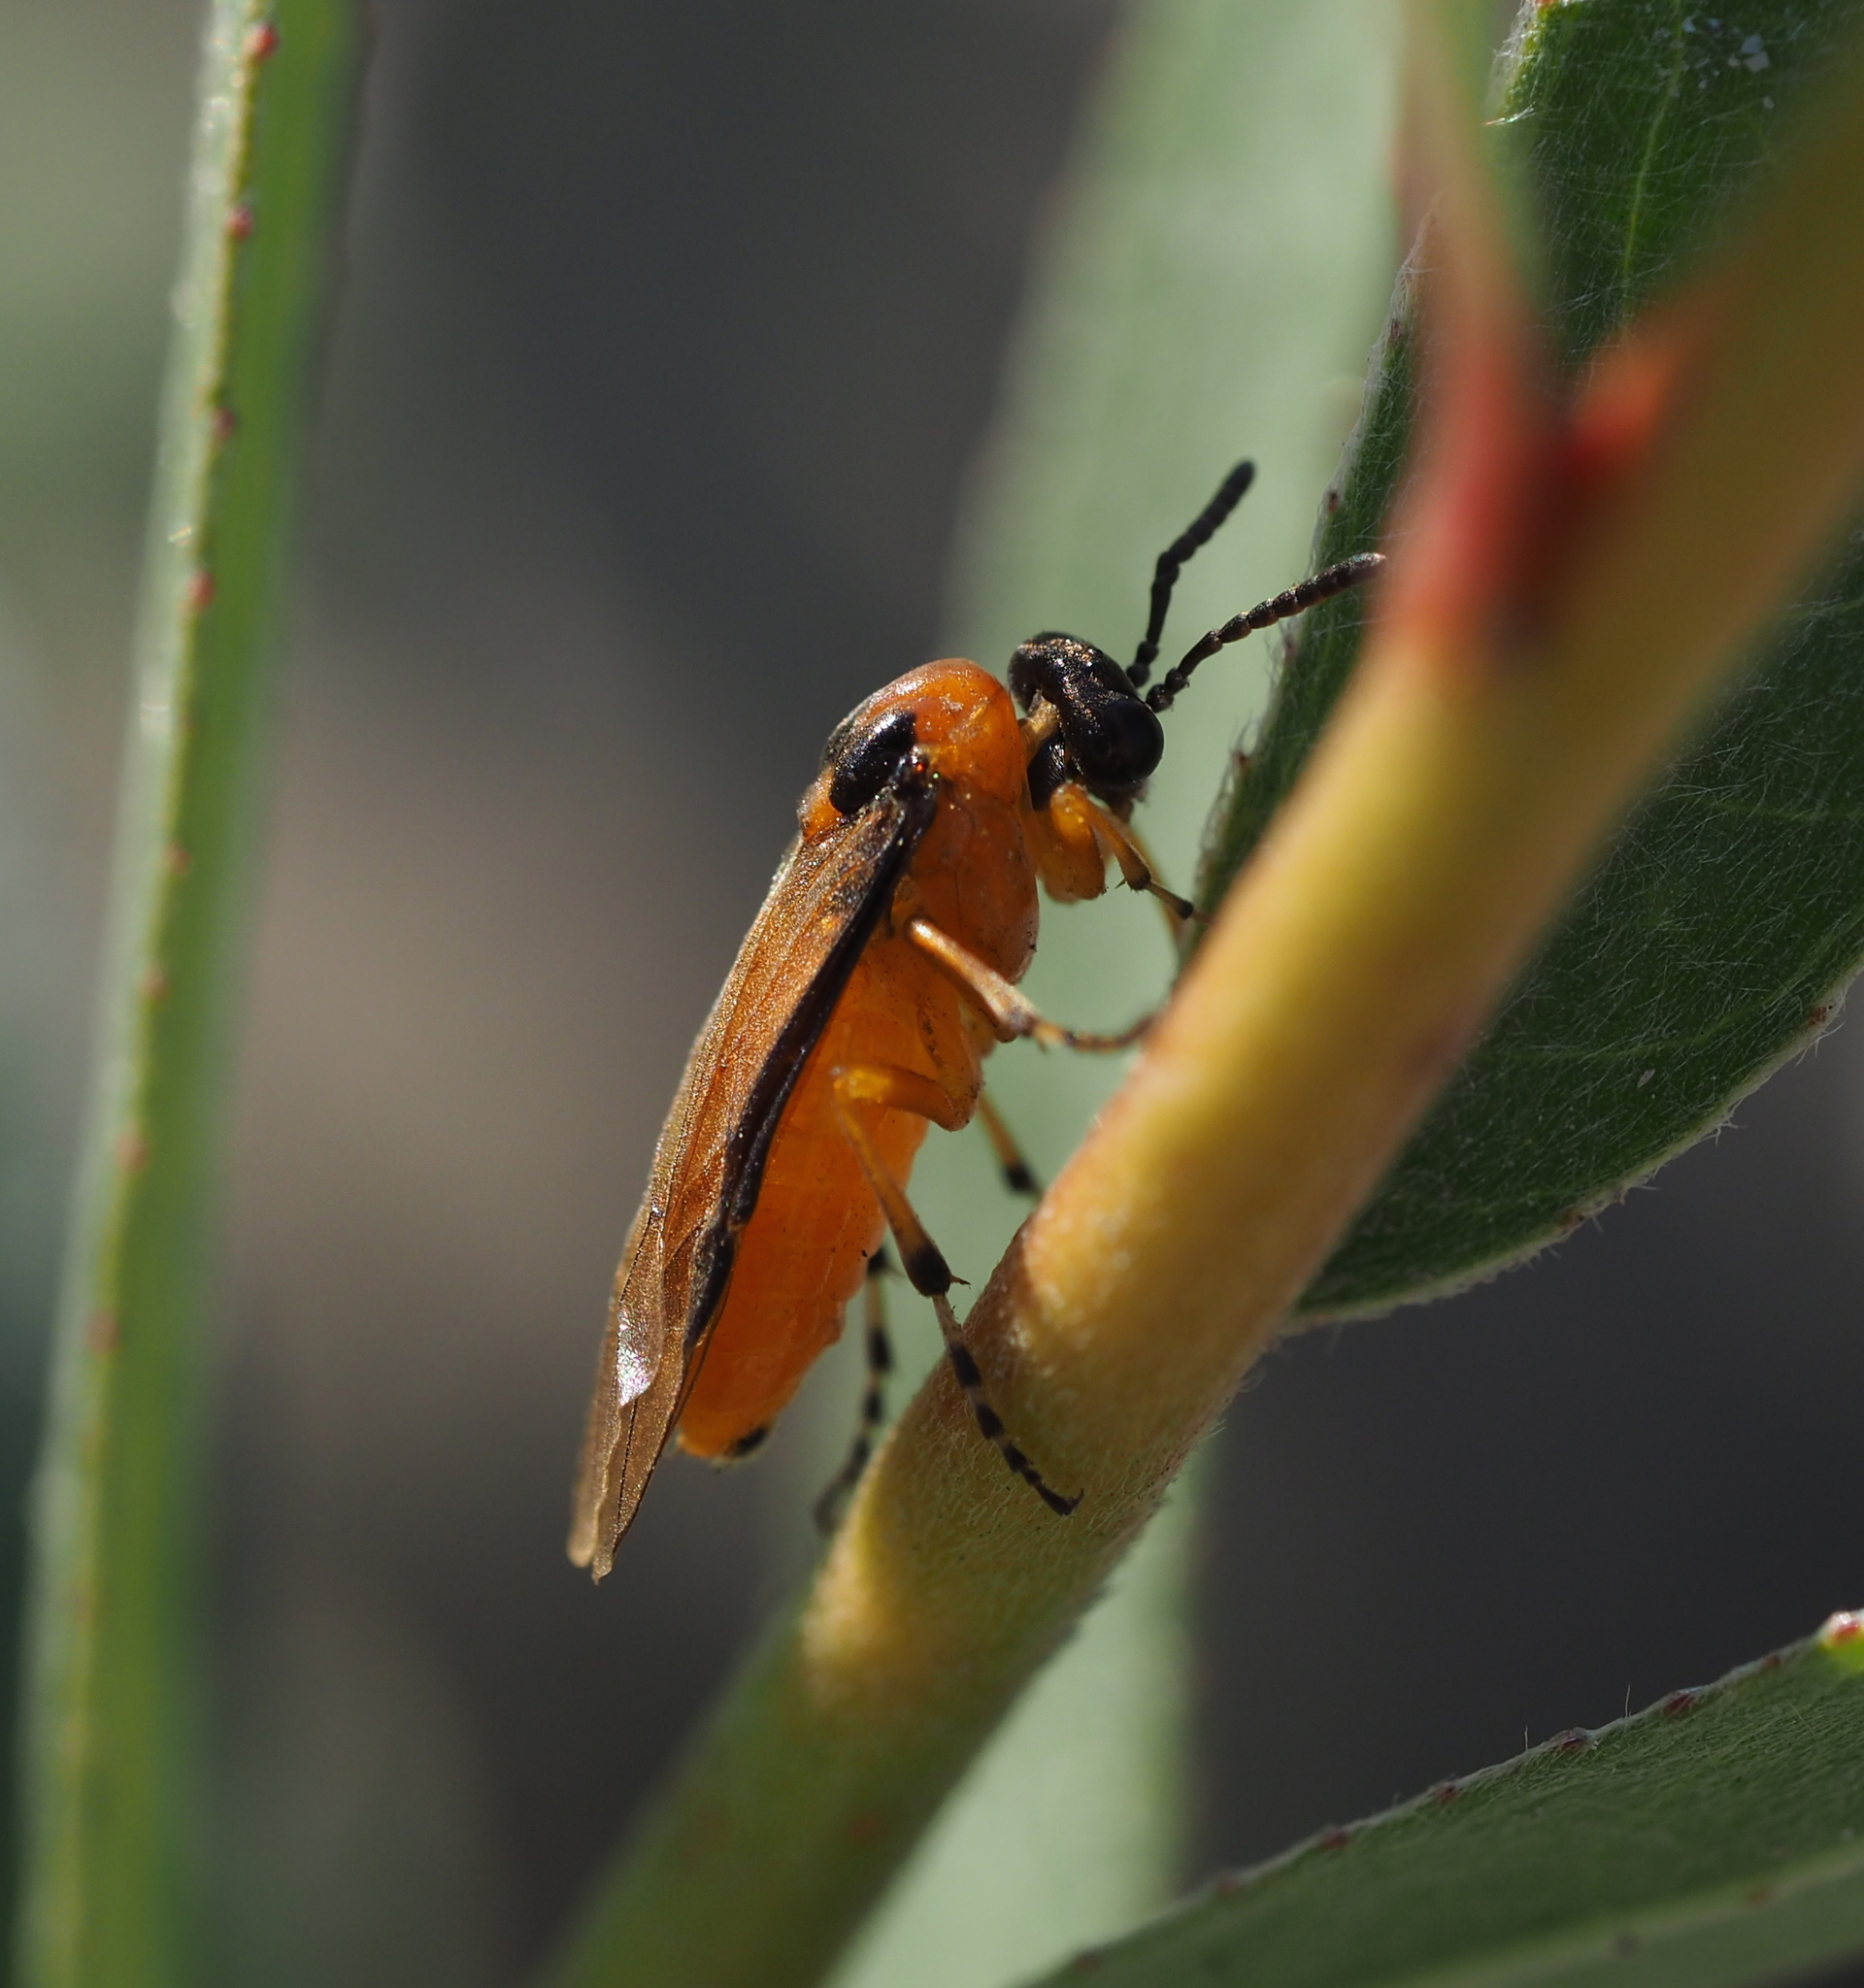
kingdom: Animalia
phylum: Arthropoda
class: Insecta
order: Hymenoptera
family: Tenthredinidae
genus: Athalia
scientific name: Athalia rosae
